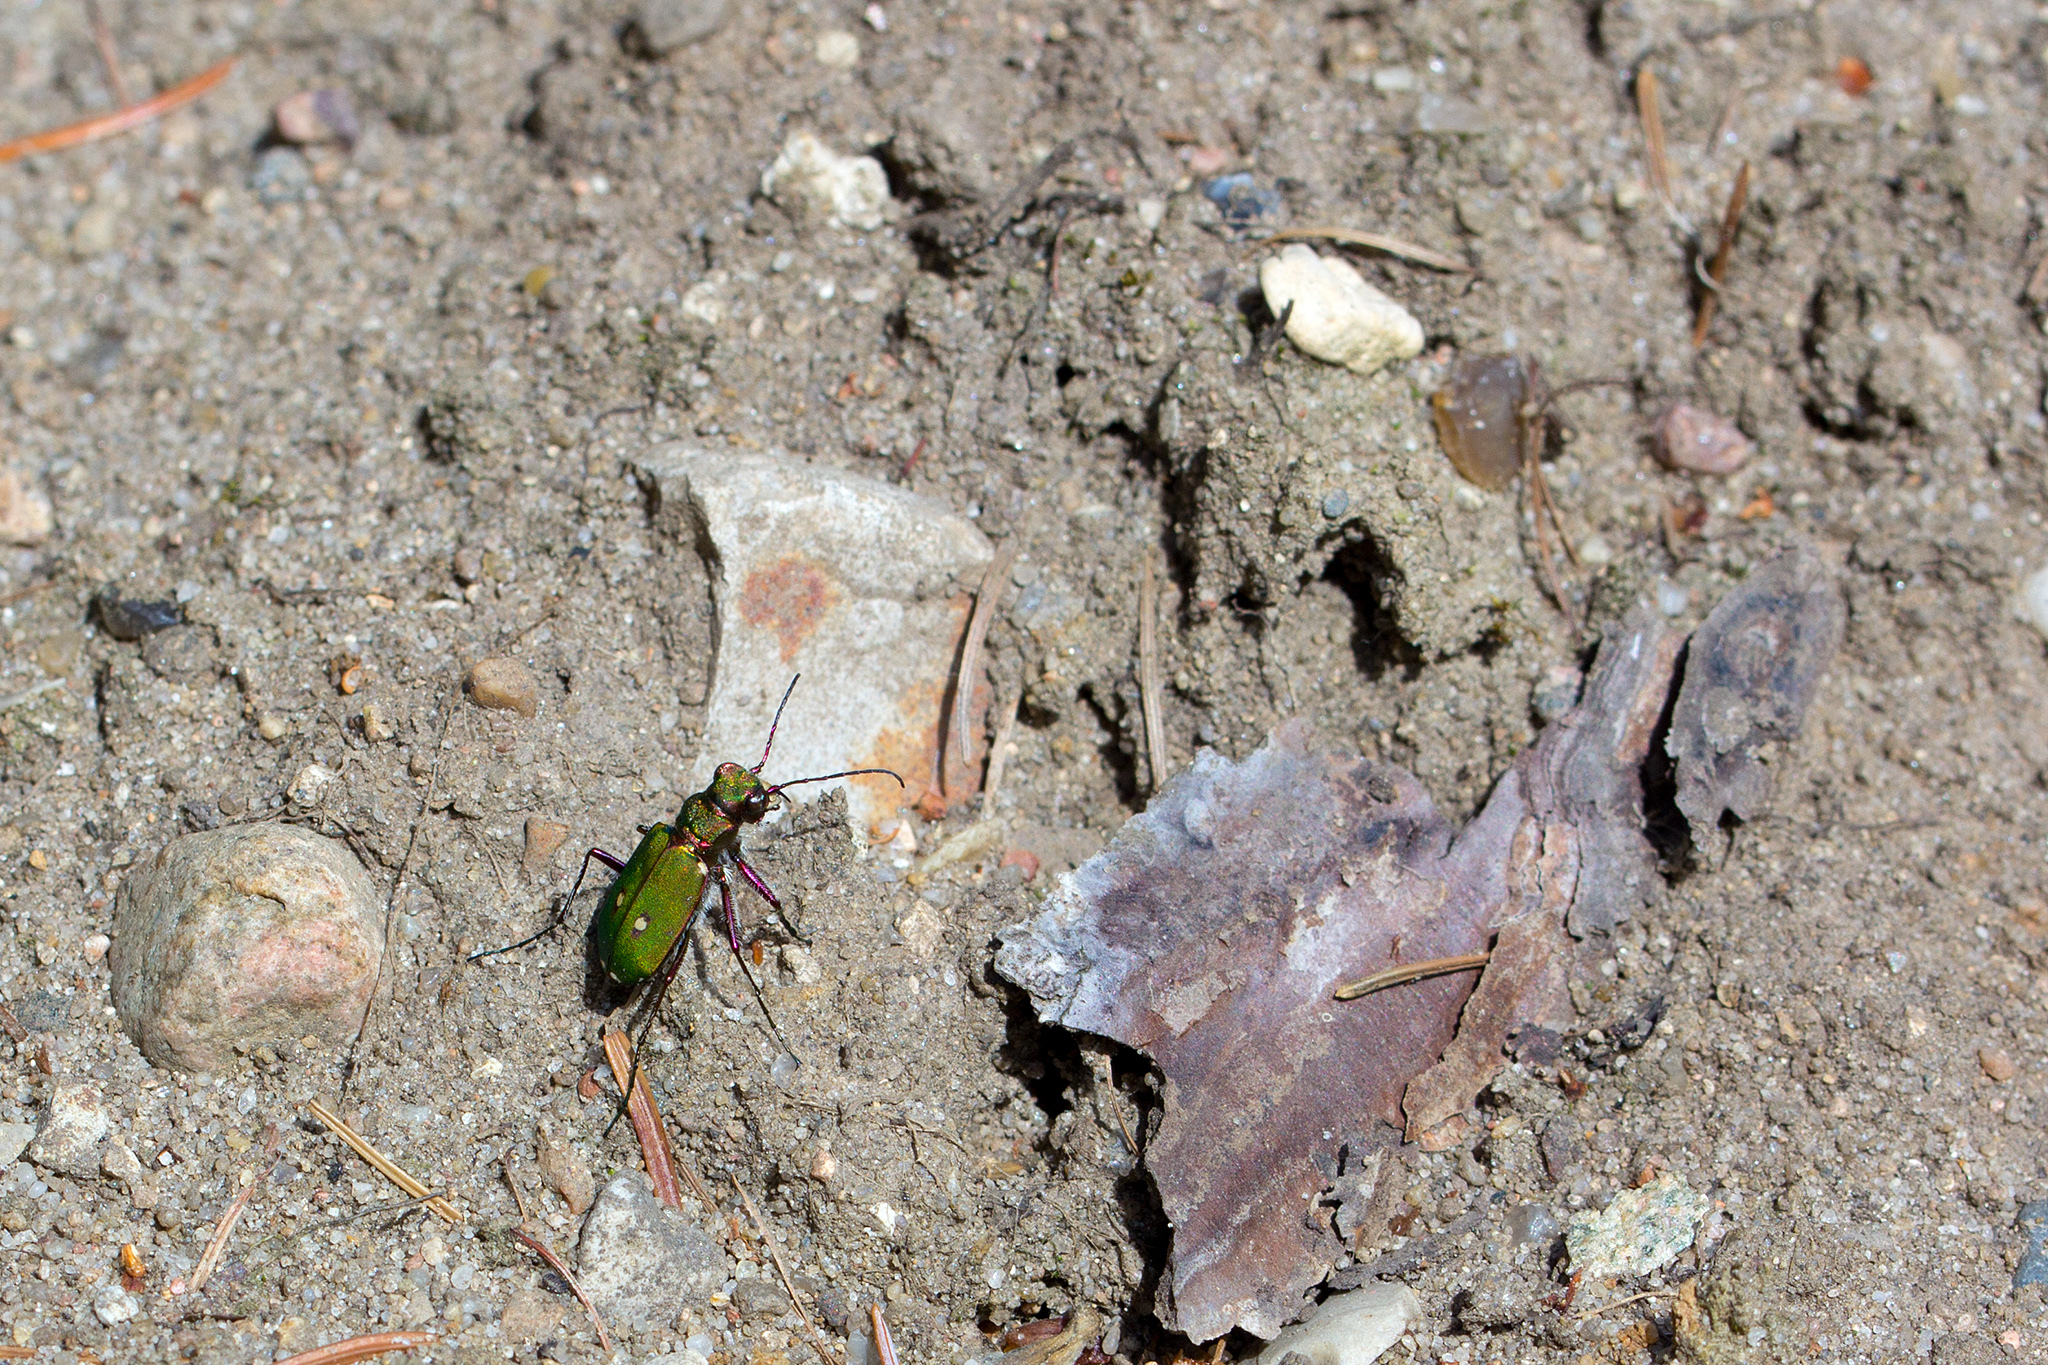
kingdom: Animalia
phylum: Arthropoda
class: Insecta
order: Coleoptera
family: Carabidae
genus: Cicindela
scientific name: Cicindela campestris
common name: Common tiger beetle
